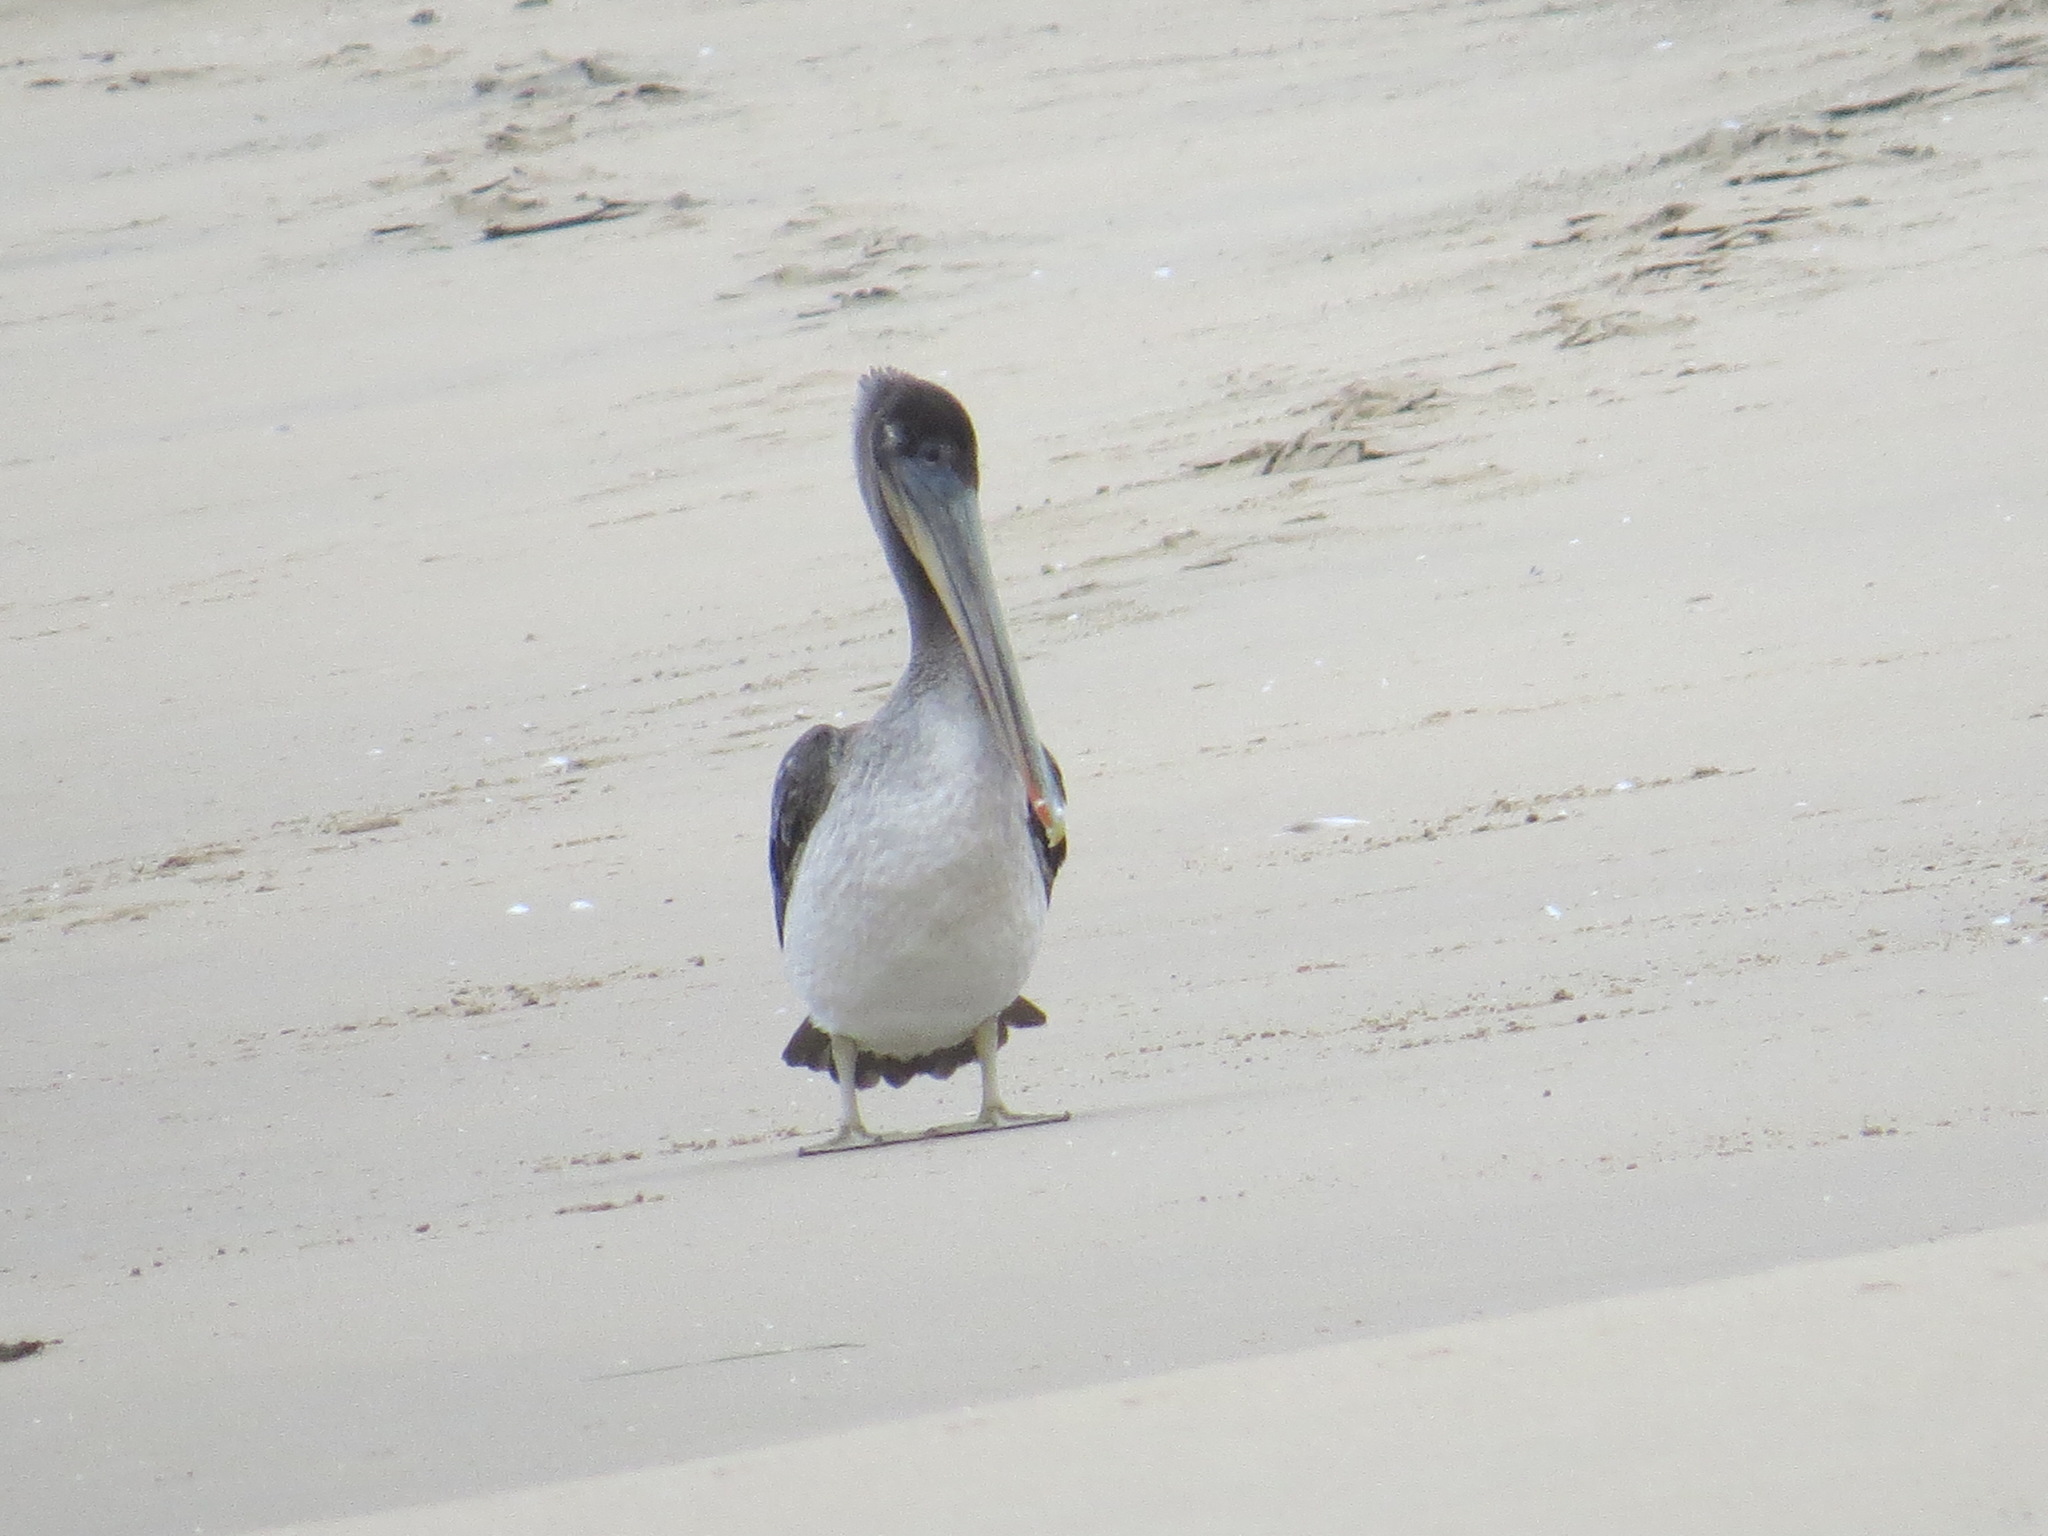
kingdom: Animalia
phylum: Chordata
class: Aves
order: Pelecaniformes
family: Pelecanidae
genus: Pelecanus
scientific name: Pelecanus occidentalis
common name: Brown pelican
